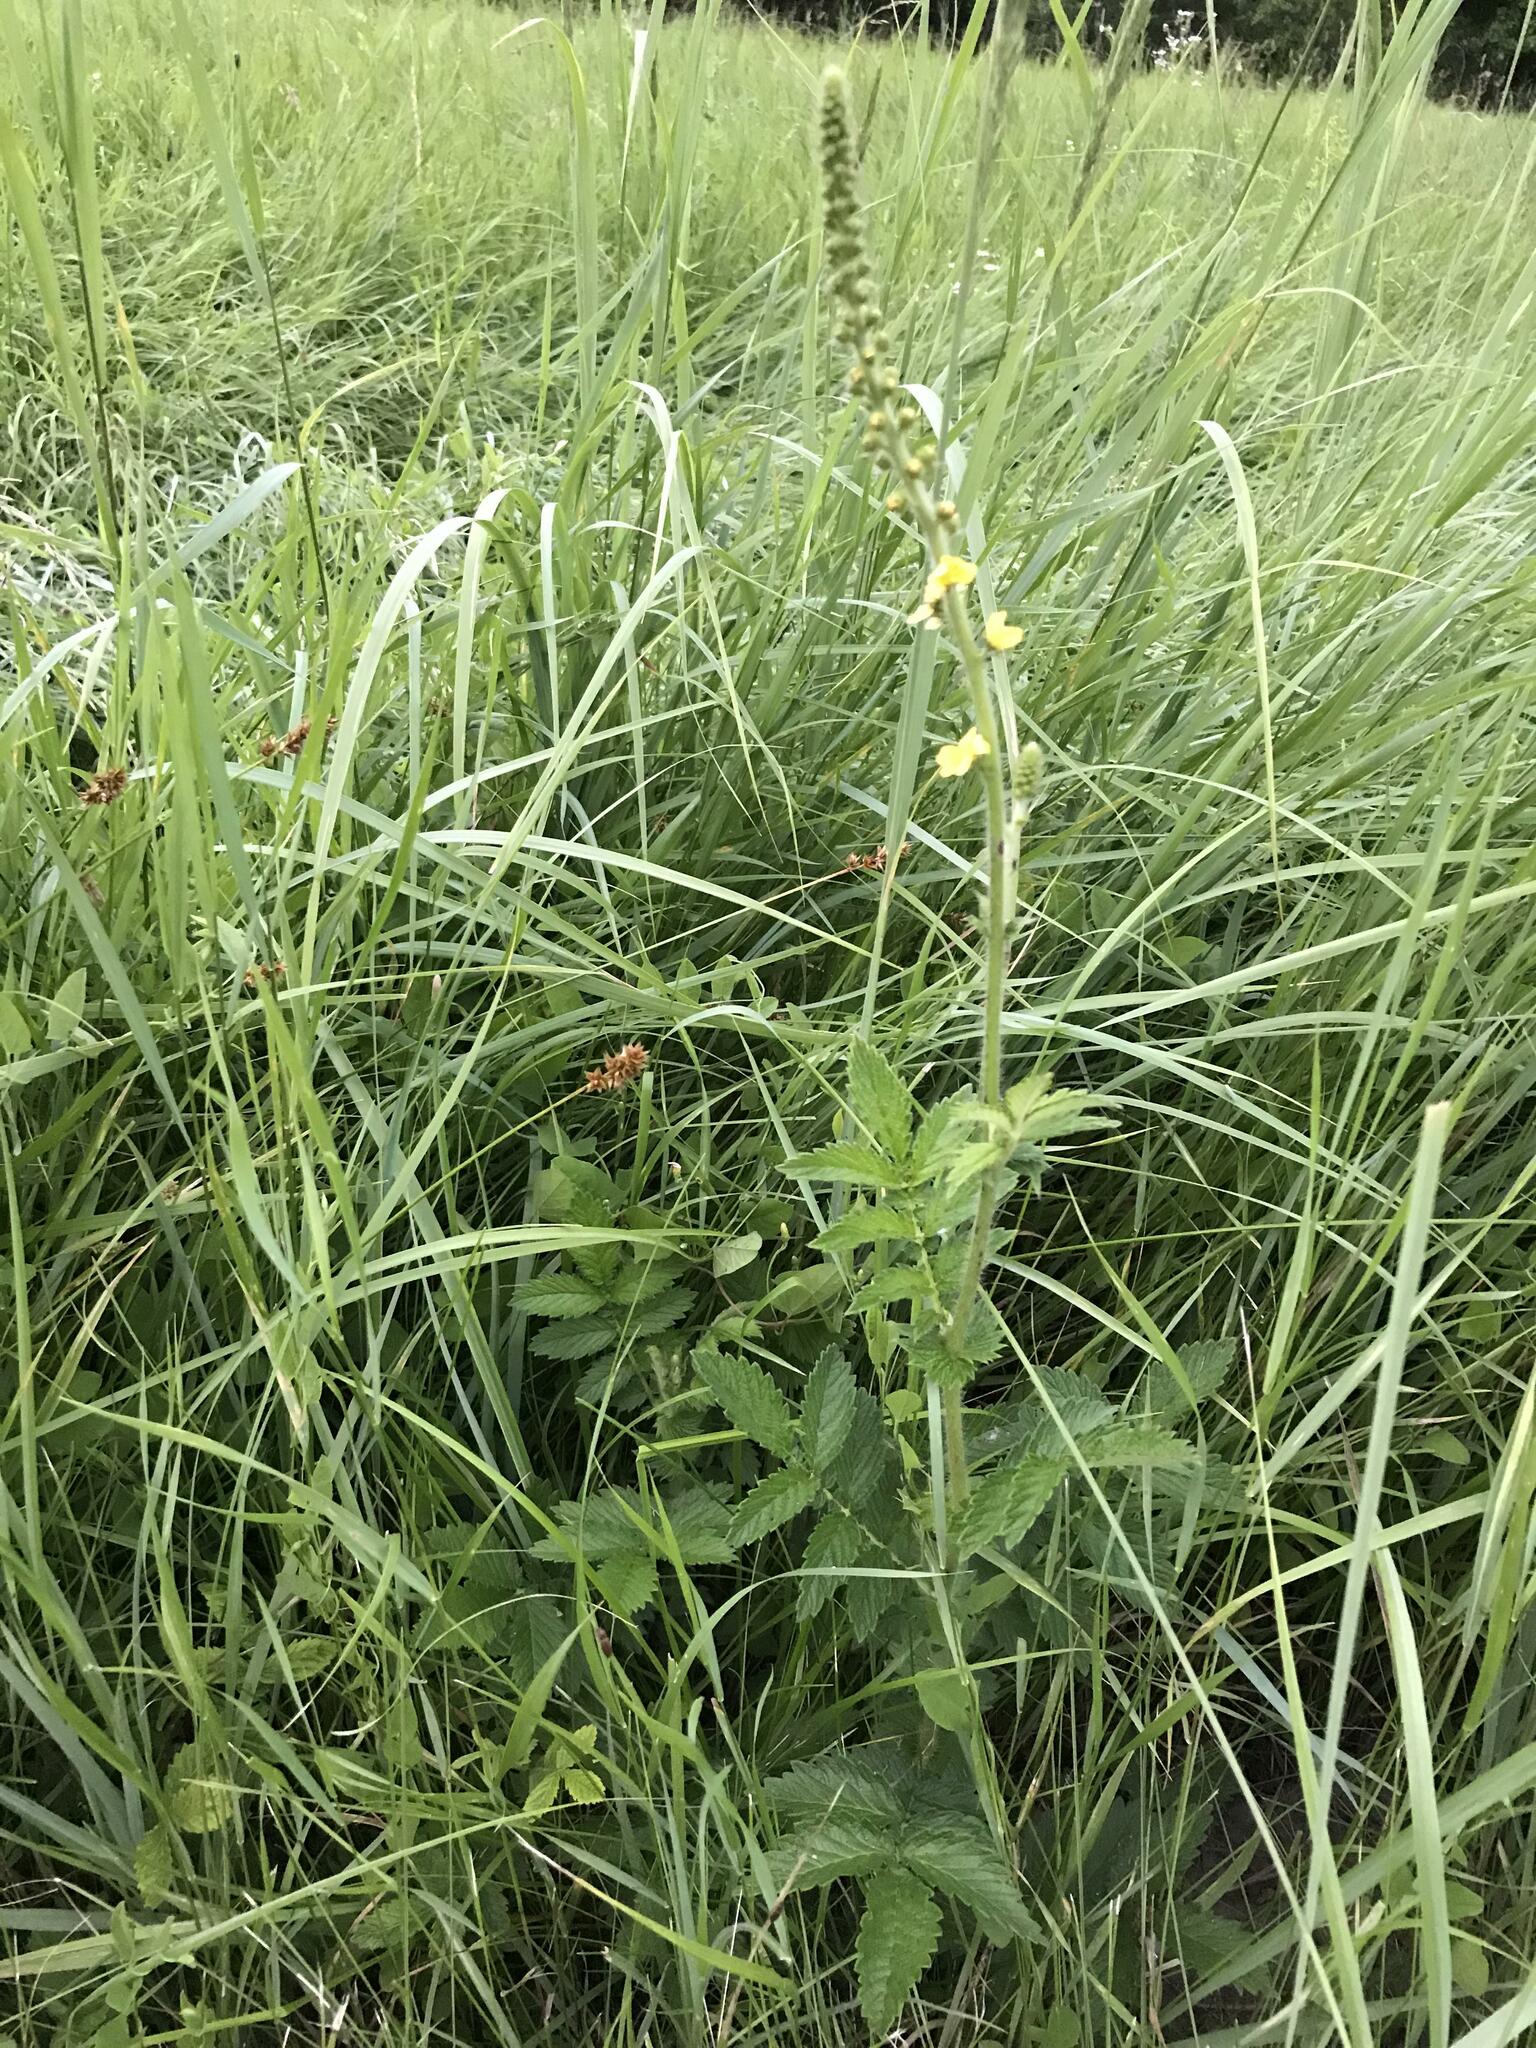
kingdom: Plantae
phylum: Tracheophyta
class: Magnoliopsida
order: Rosales
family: Rosaceae
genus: Agrimonia
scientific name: Agrimonia eupatoria
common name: Agrimony
